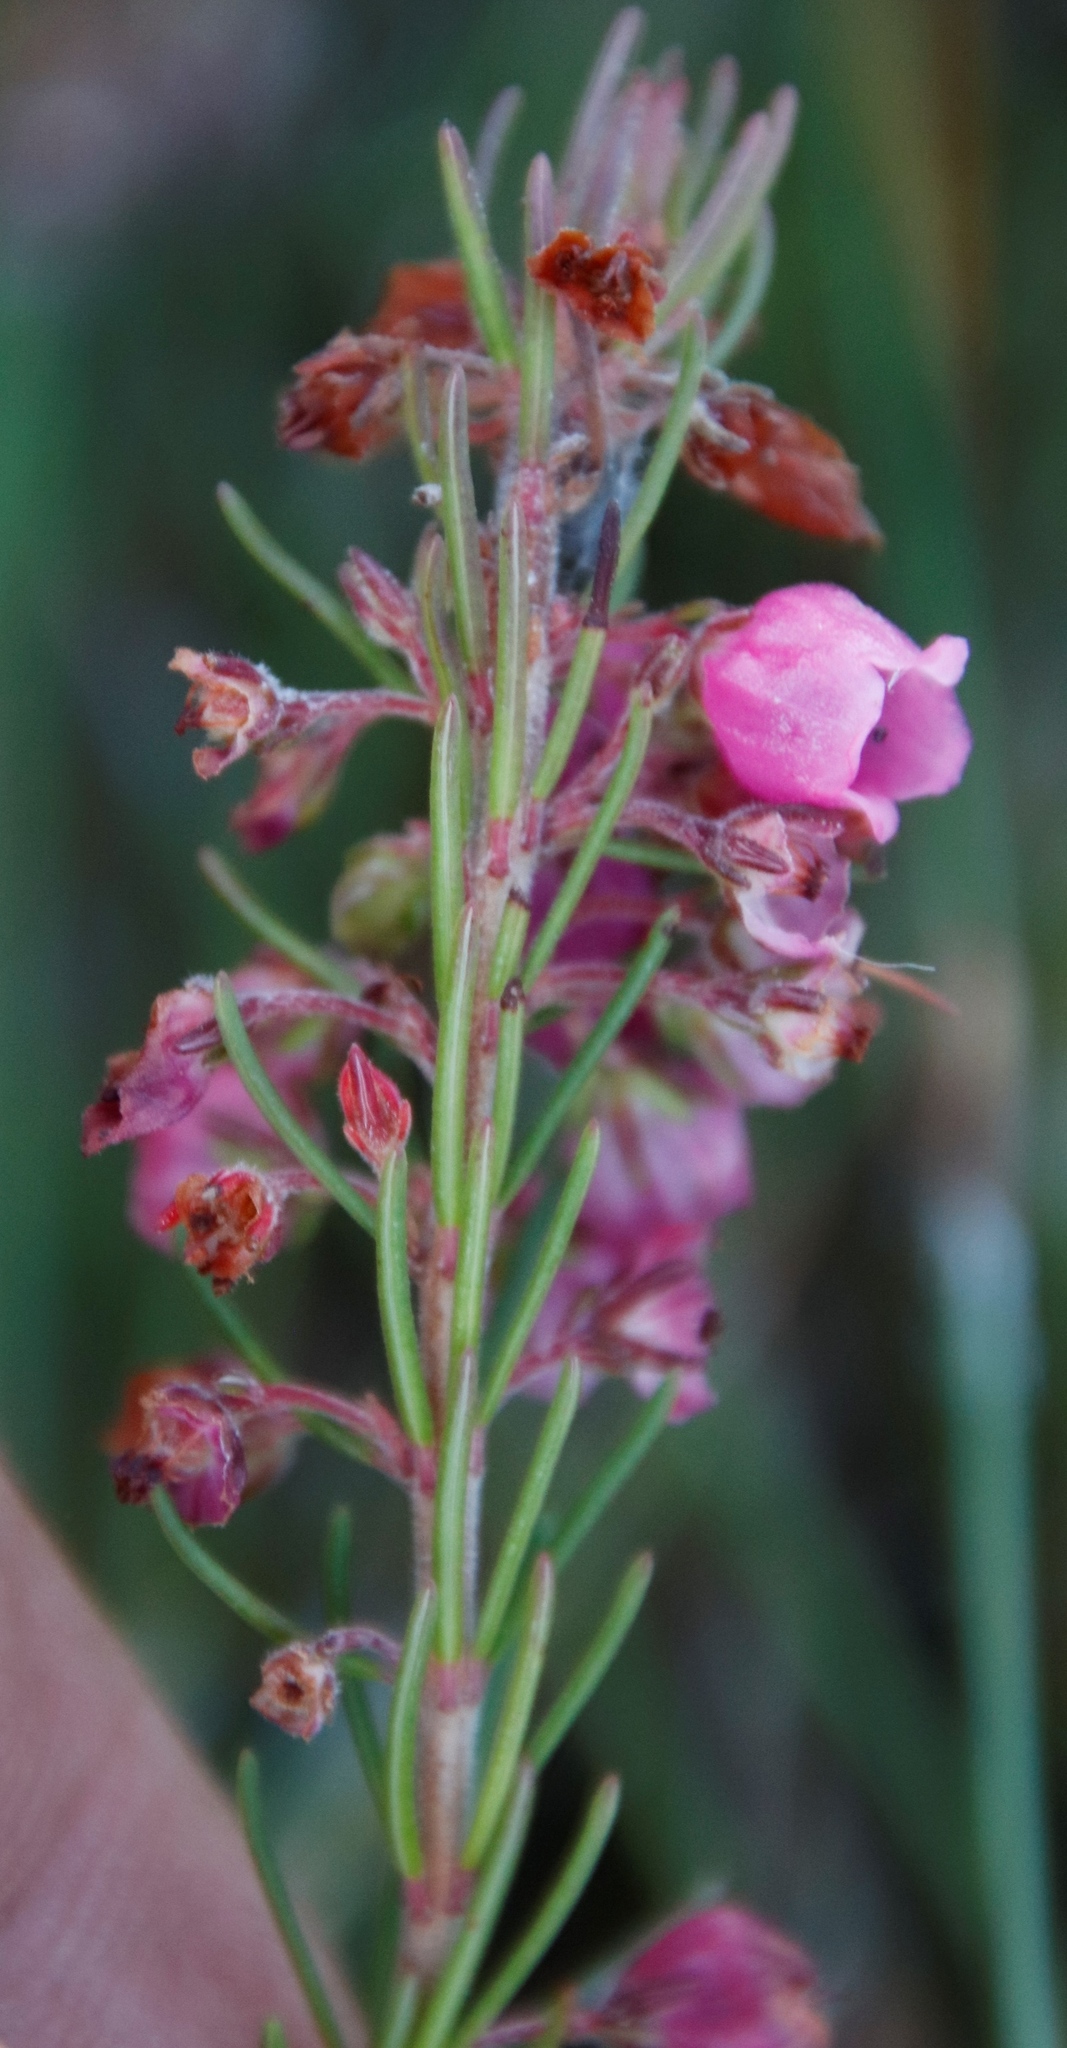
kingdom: Plantae
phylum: Tracheophyta
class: Magnoliopsida
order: Ericales
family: Ericaceae
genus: Erica
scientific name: Erica viscaria
